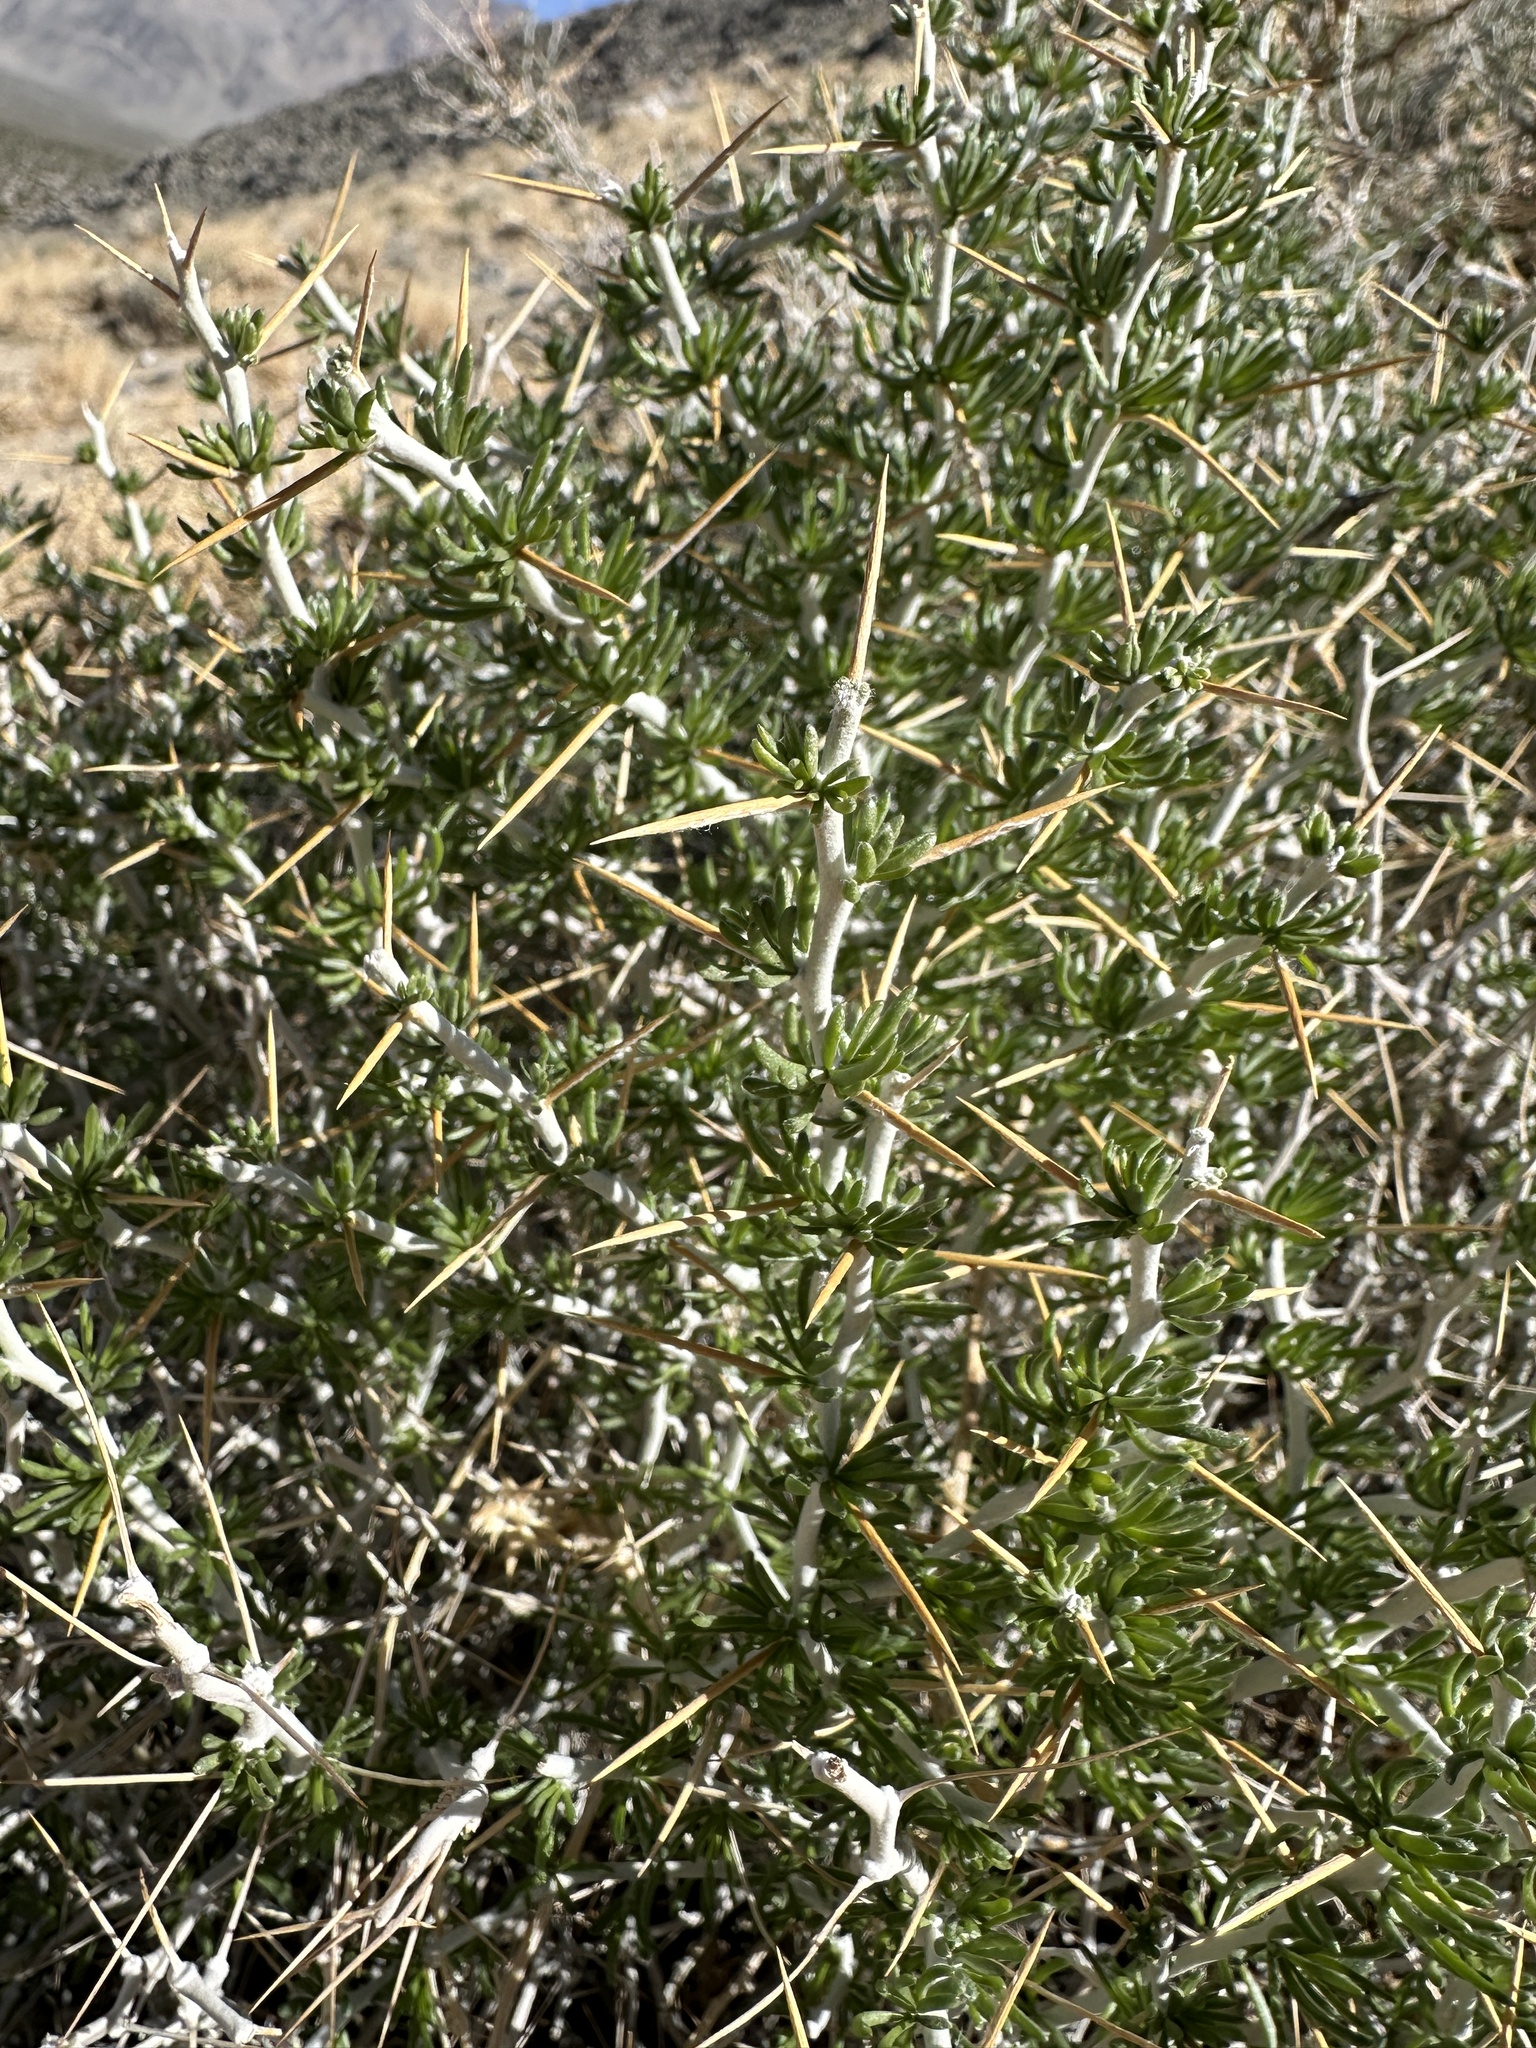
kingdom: Plantae
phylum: Tracheophyta
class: Magnoliopsida
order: Asterales
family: Asteraceae
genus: Tetradymia
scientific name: Tetradymia axillaris
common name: Long-spine horsebrush
